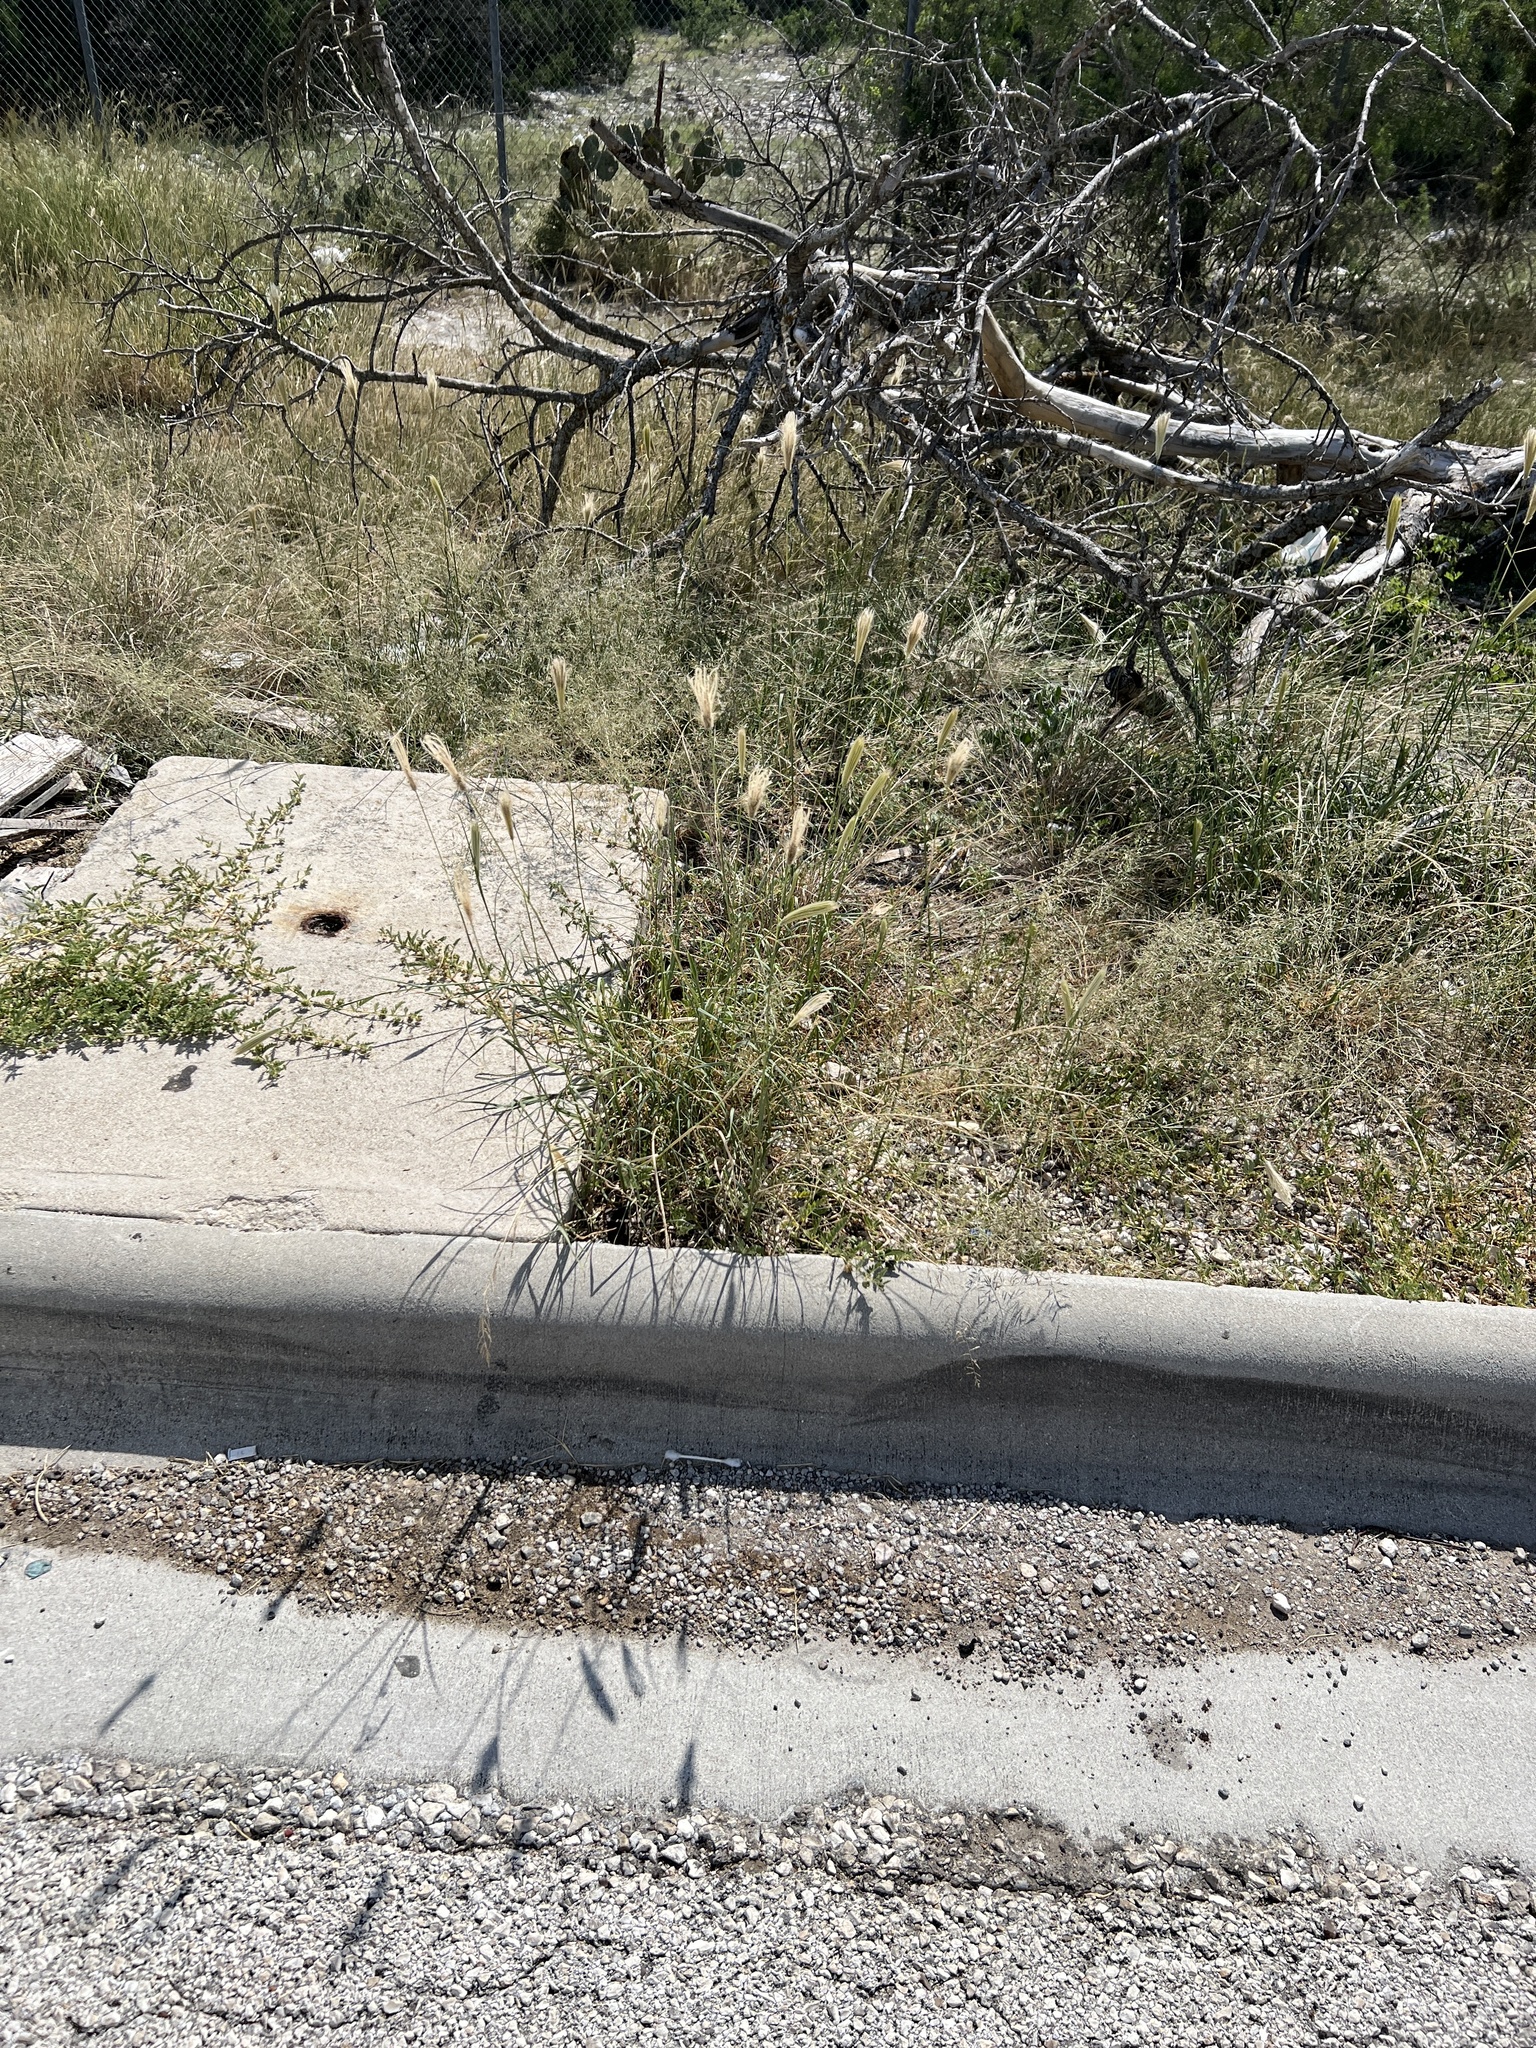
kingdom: Plantae
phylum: Tracheophyta
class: Liliopsida
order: Poales
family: Poaceae
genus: Chloris
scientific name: Chloris virgata
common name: Feathery rhodes-grass
